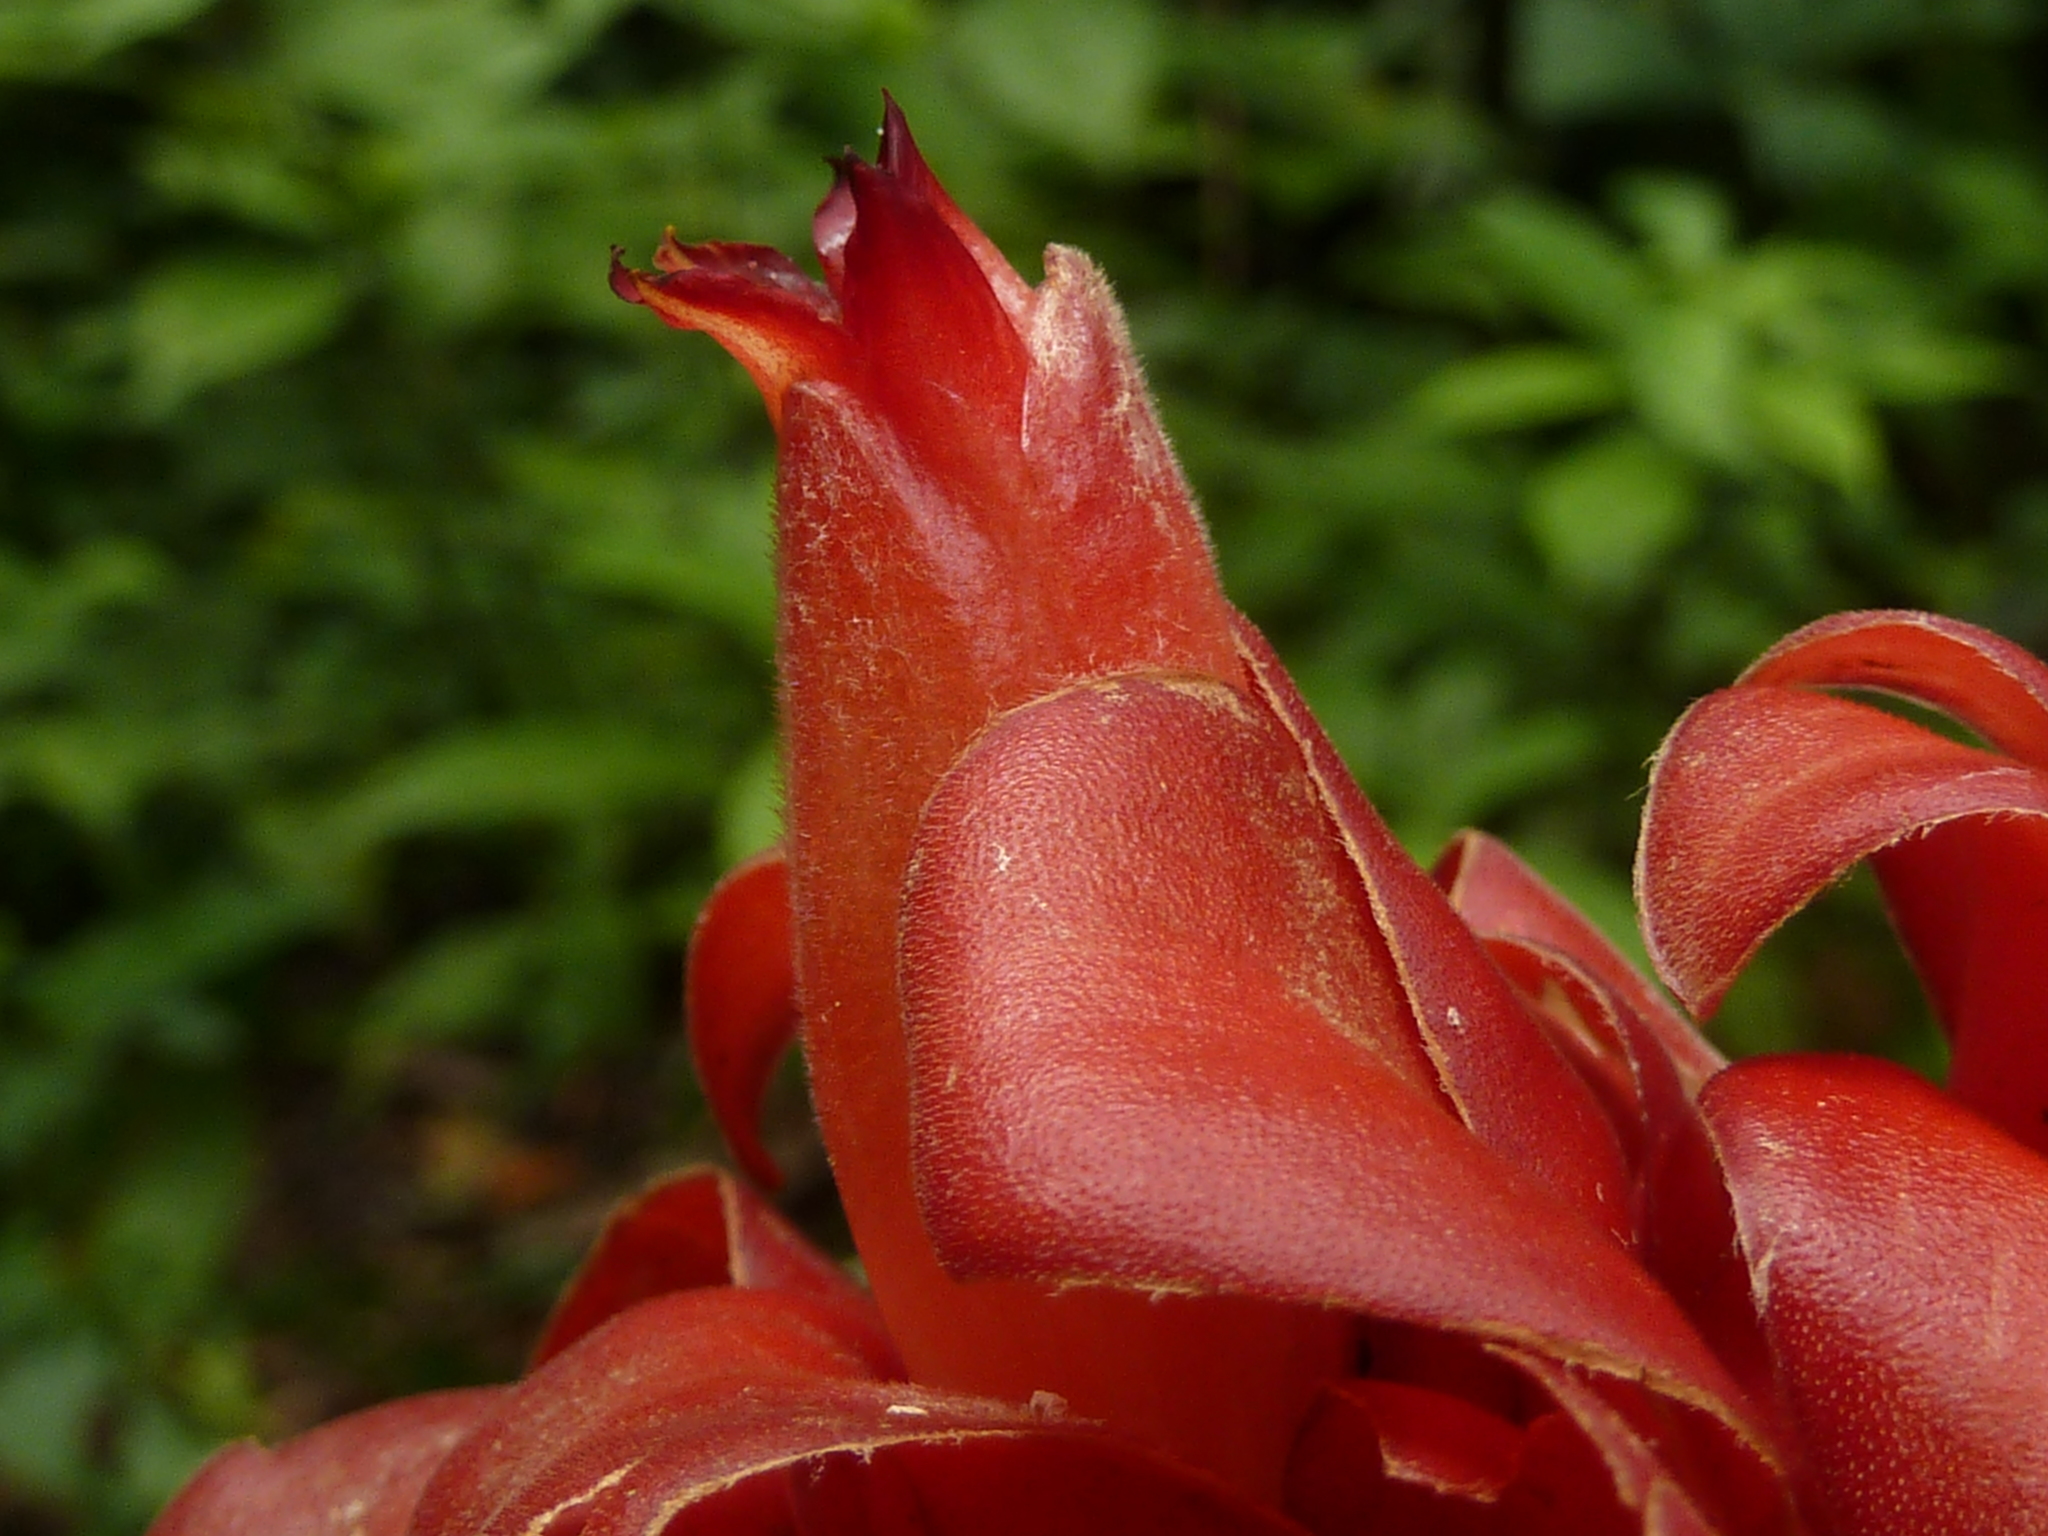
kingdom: Plantae
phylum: Tracheophyta
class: Liliopsida
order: Zingiberales
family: Costaceae
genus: Costus
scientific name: Costus lima
